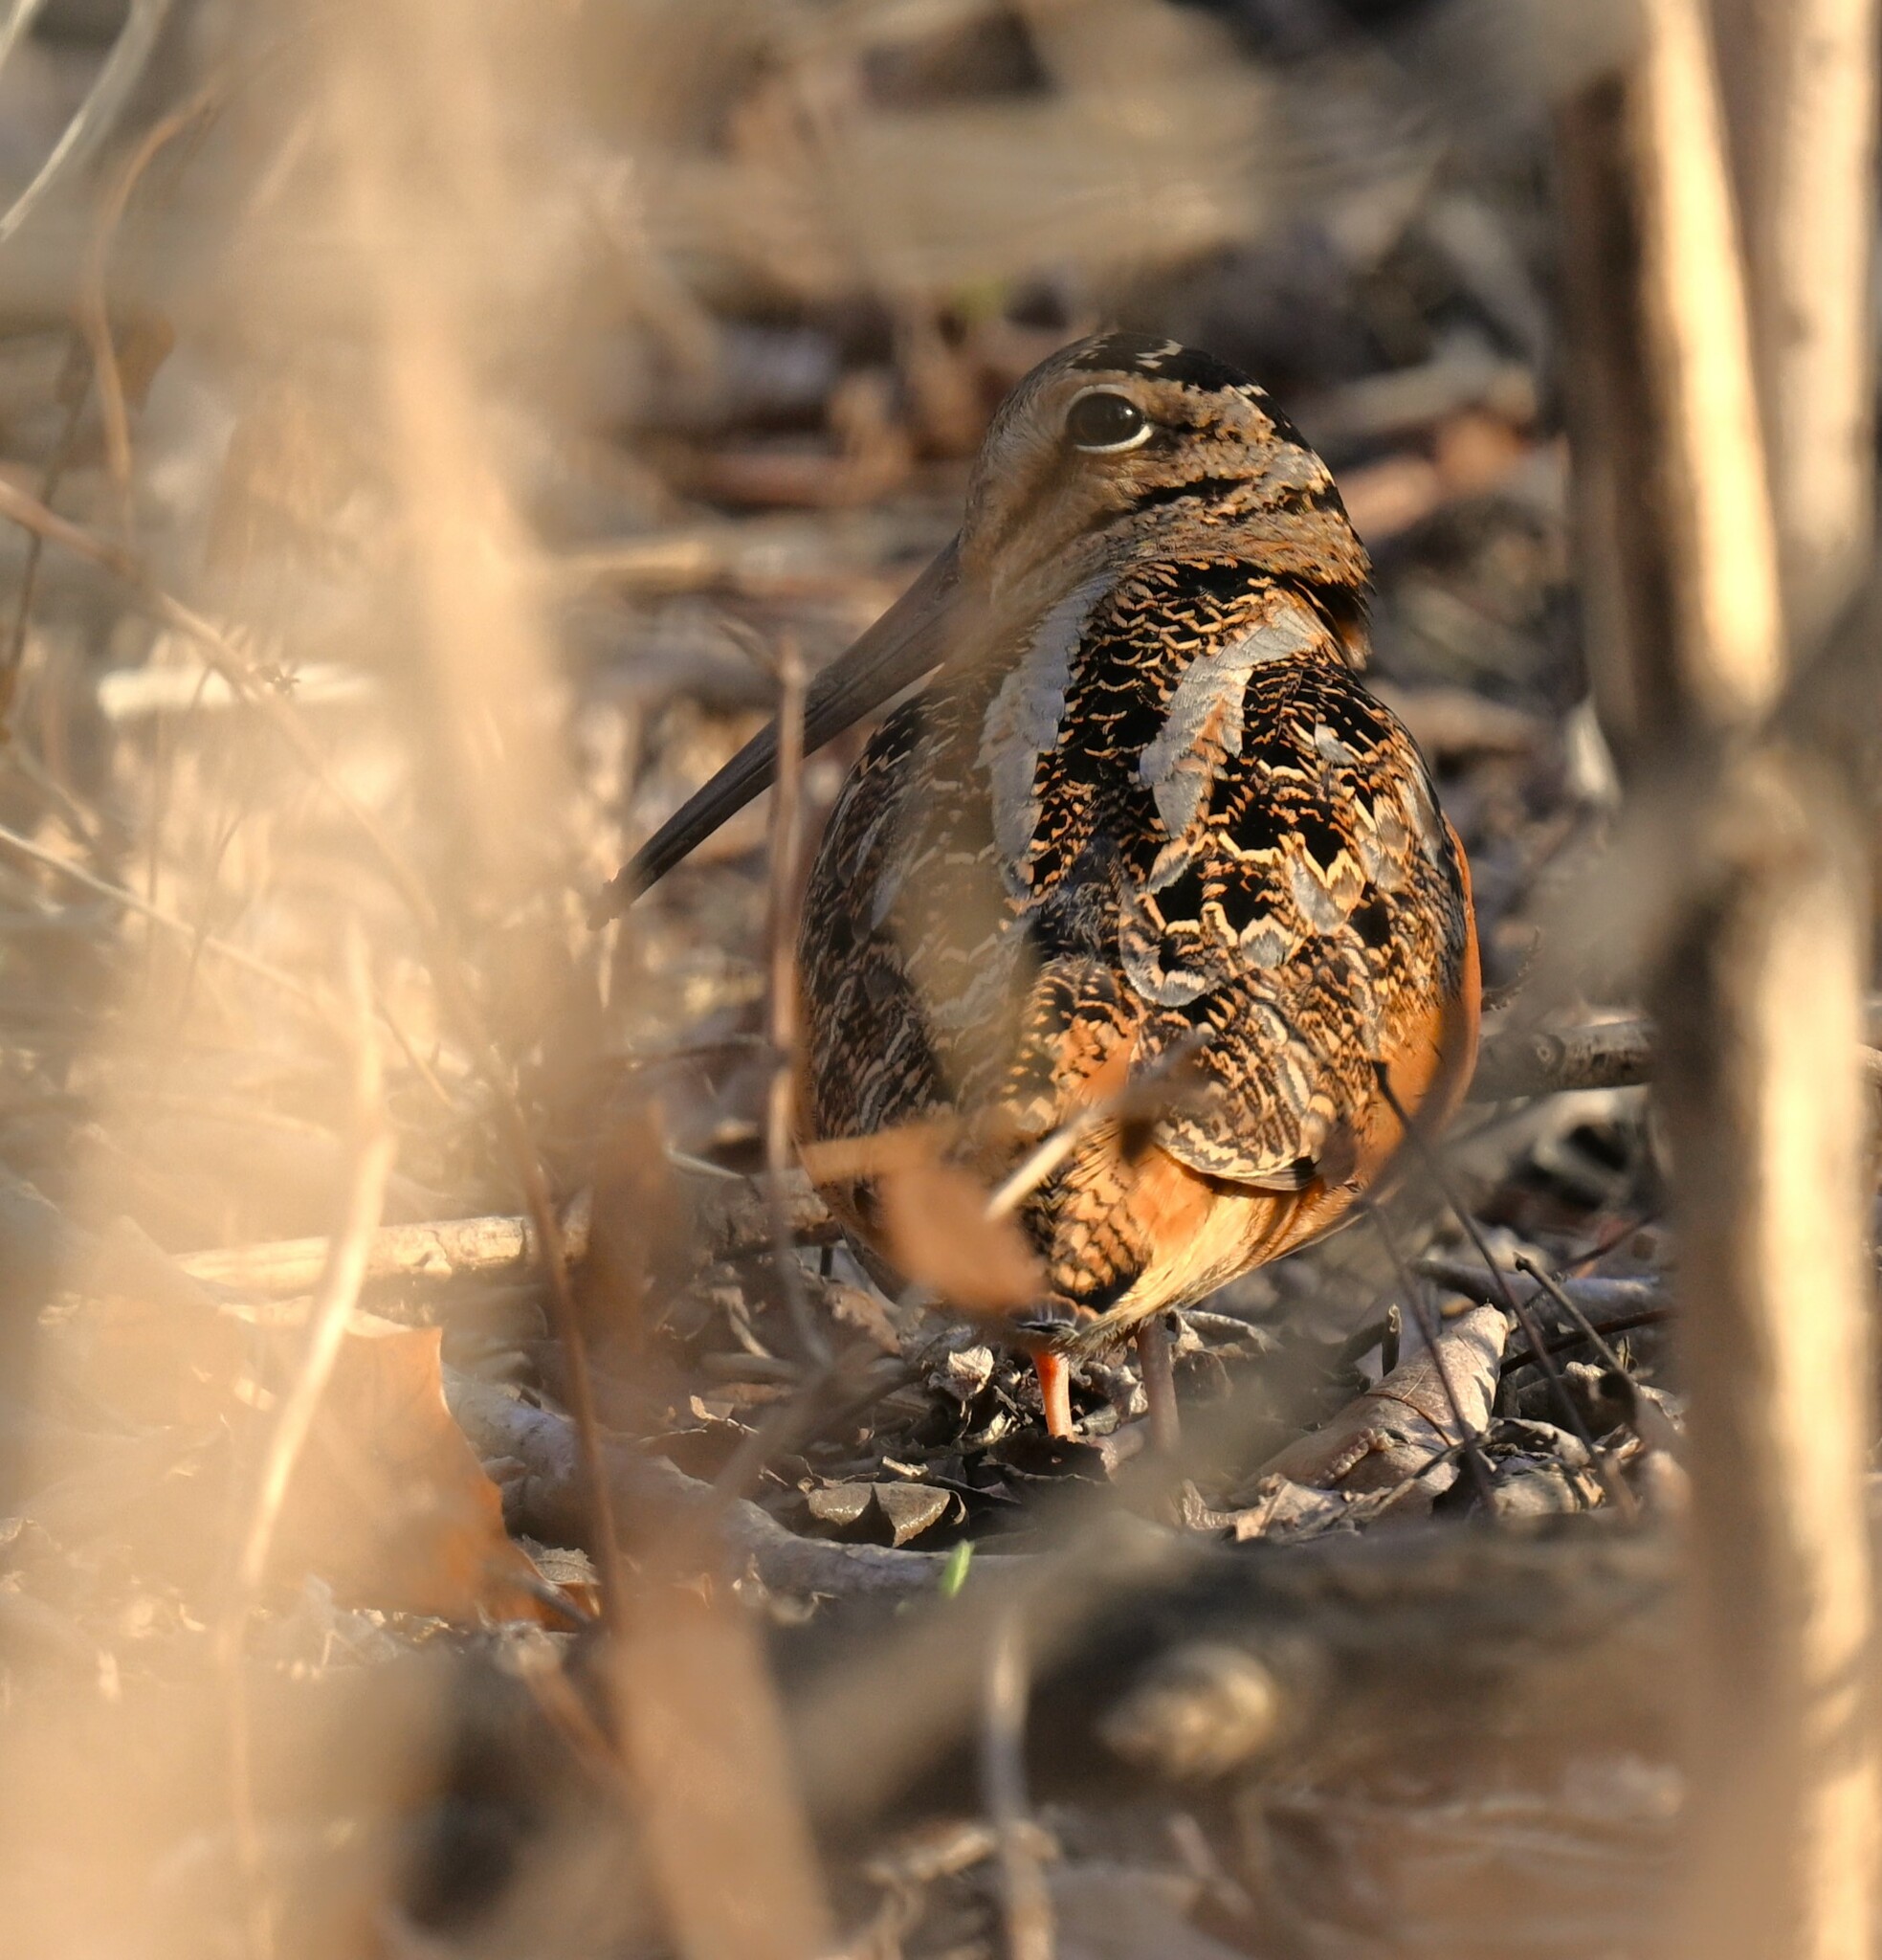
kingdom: Animalia
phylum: Chordata
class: Aves
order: Charadriiformes
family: Scolopacidae
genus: Scolopax
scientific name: Scolopax minor
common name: American woodcock
